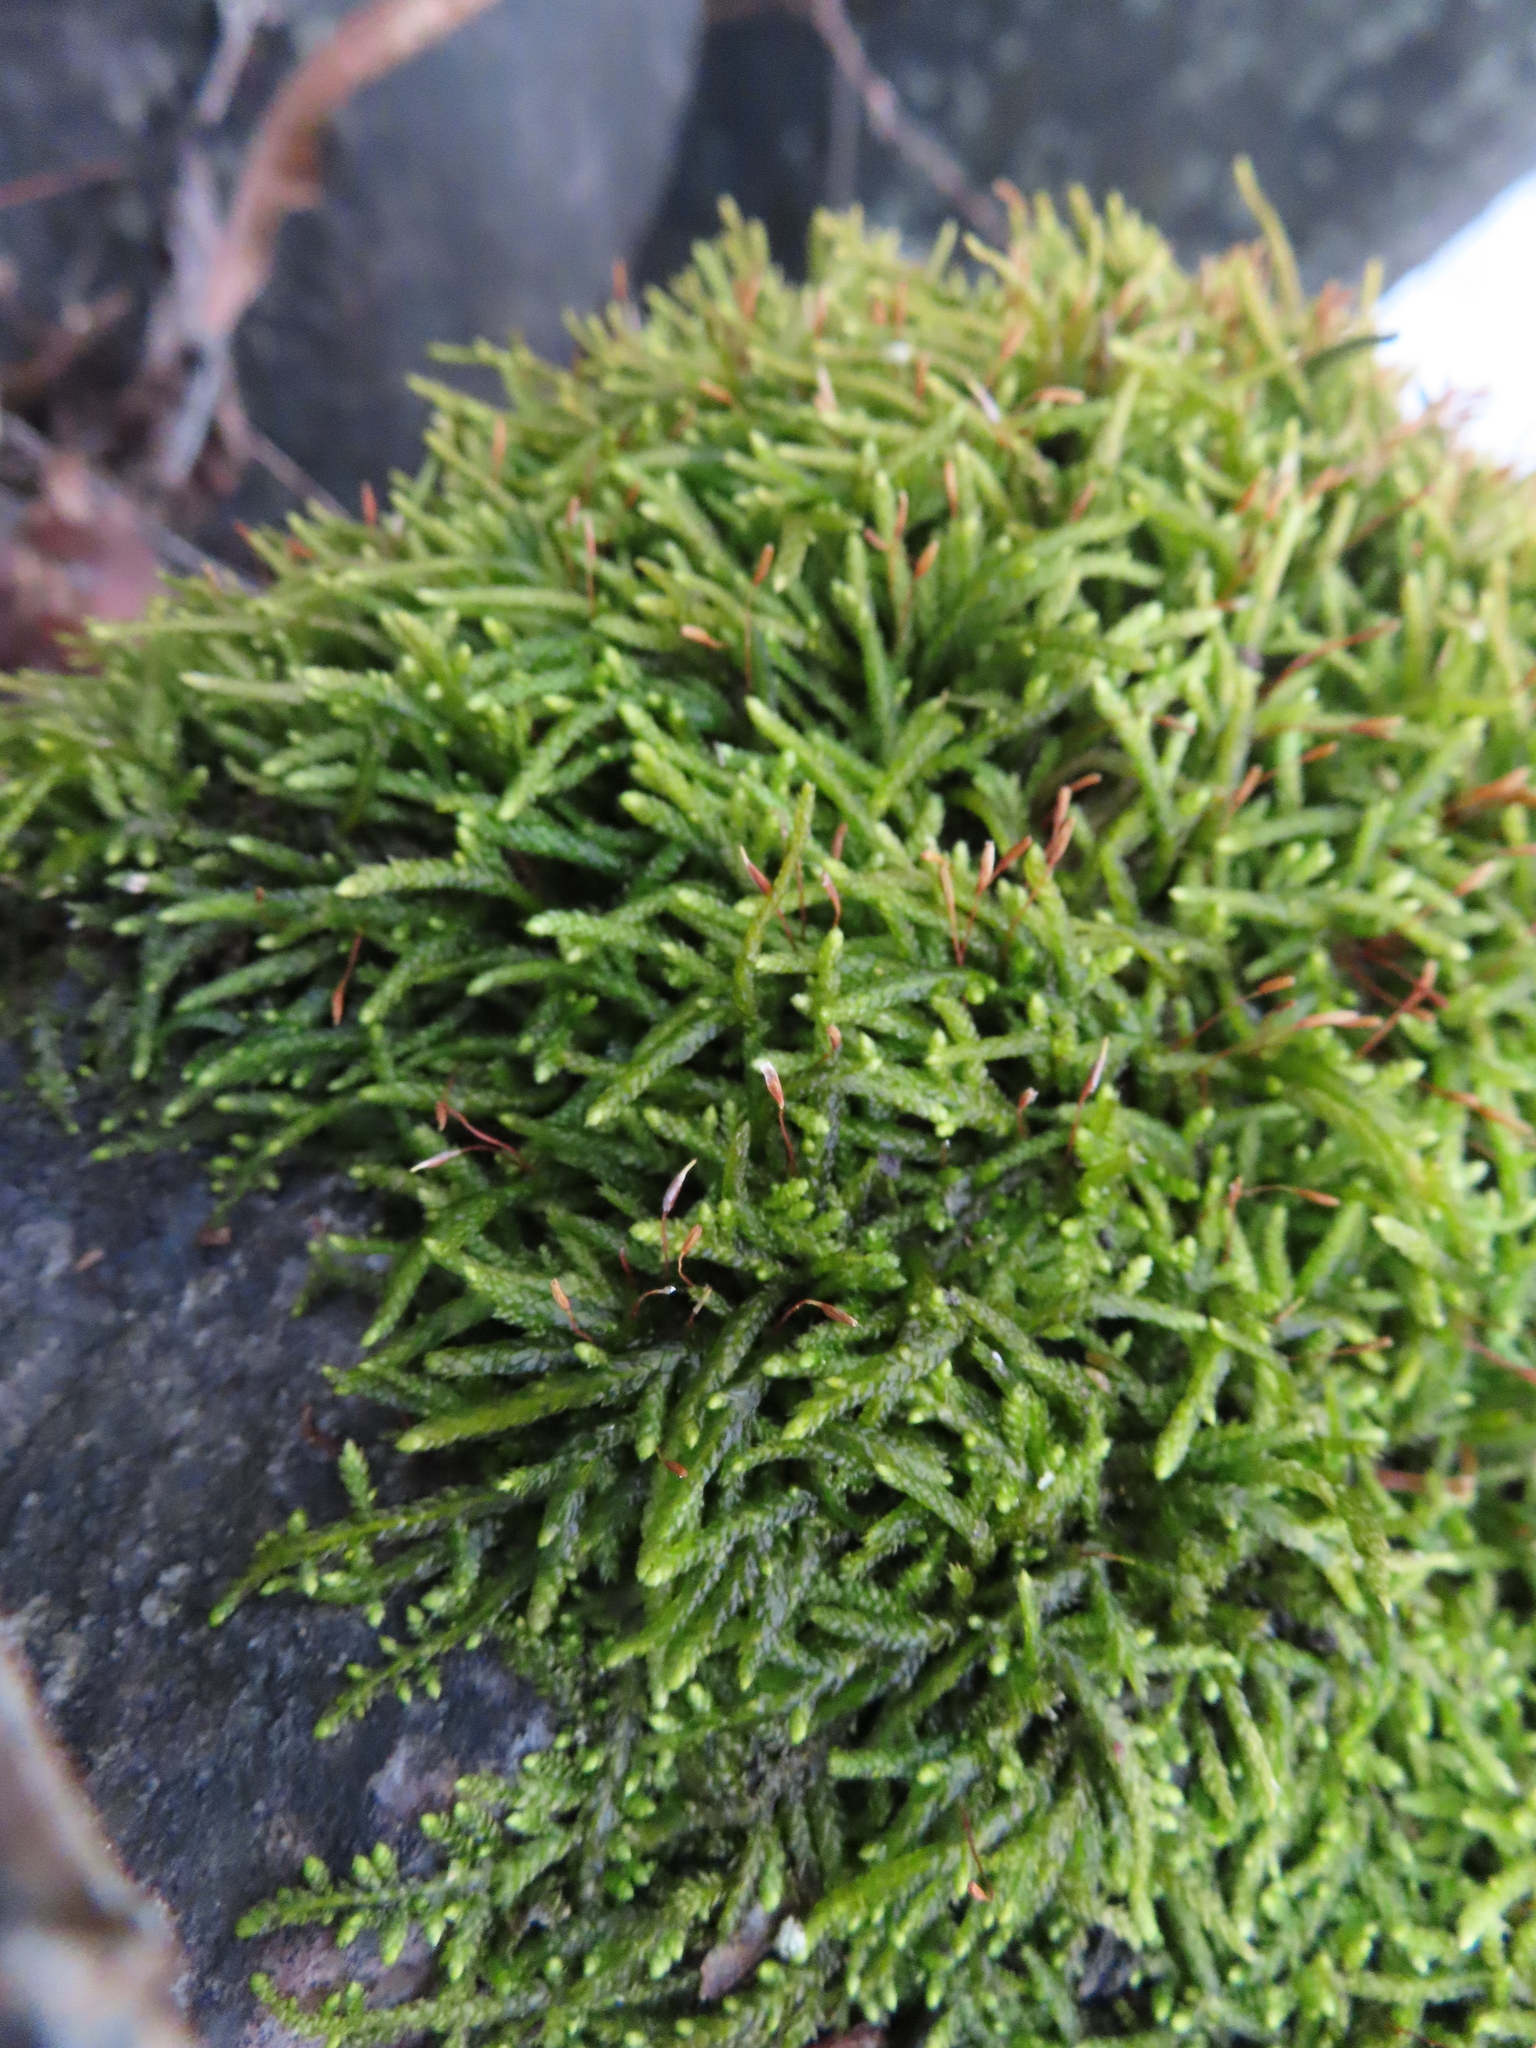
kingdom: Plantae
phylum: Bryophyta
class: Bryopsida
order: Hypnales
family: Entodontaceae
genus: Entodon
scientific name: Entodon seductrix
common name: Round-stemmed entodon moss
